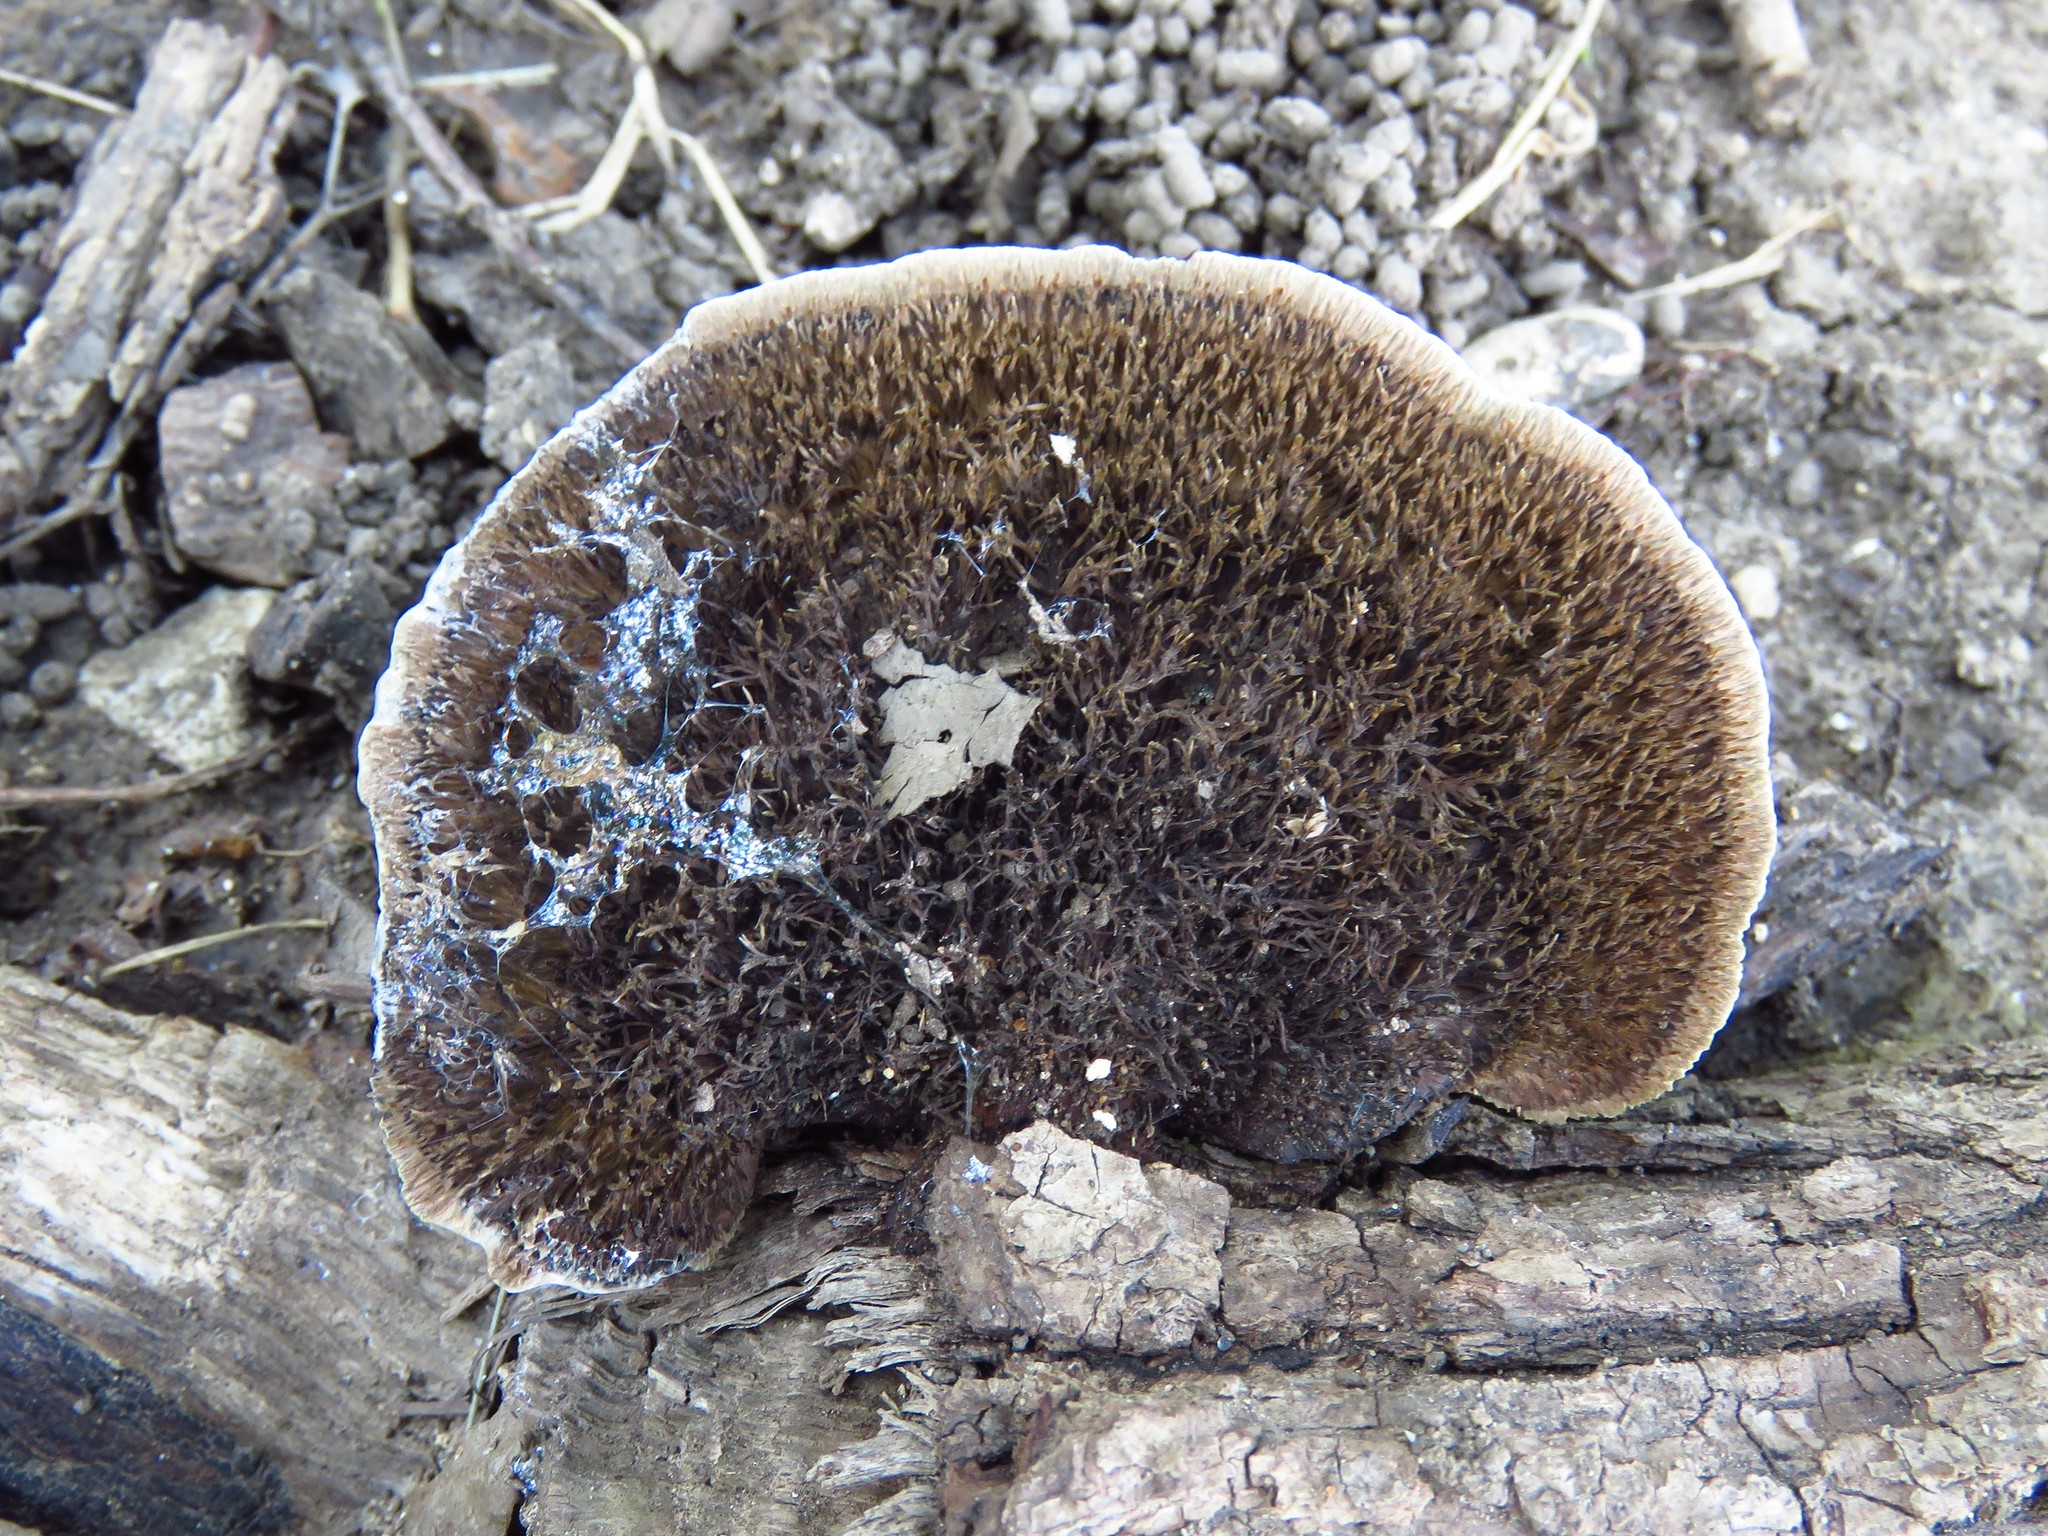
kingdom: Fungi
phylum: Basidiomycota
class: Agaricomycetes
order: Polyporales
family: Cerrenaceae
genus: Cerrena
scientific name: Cerrena hydnoides
